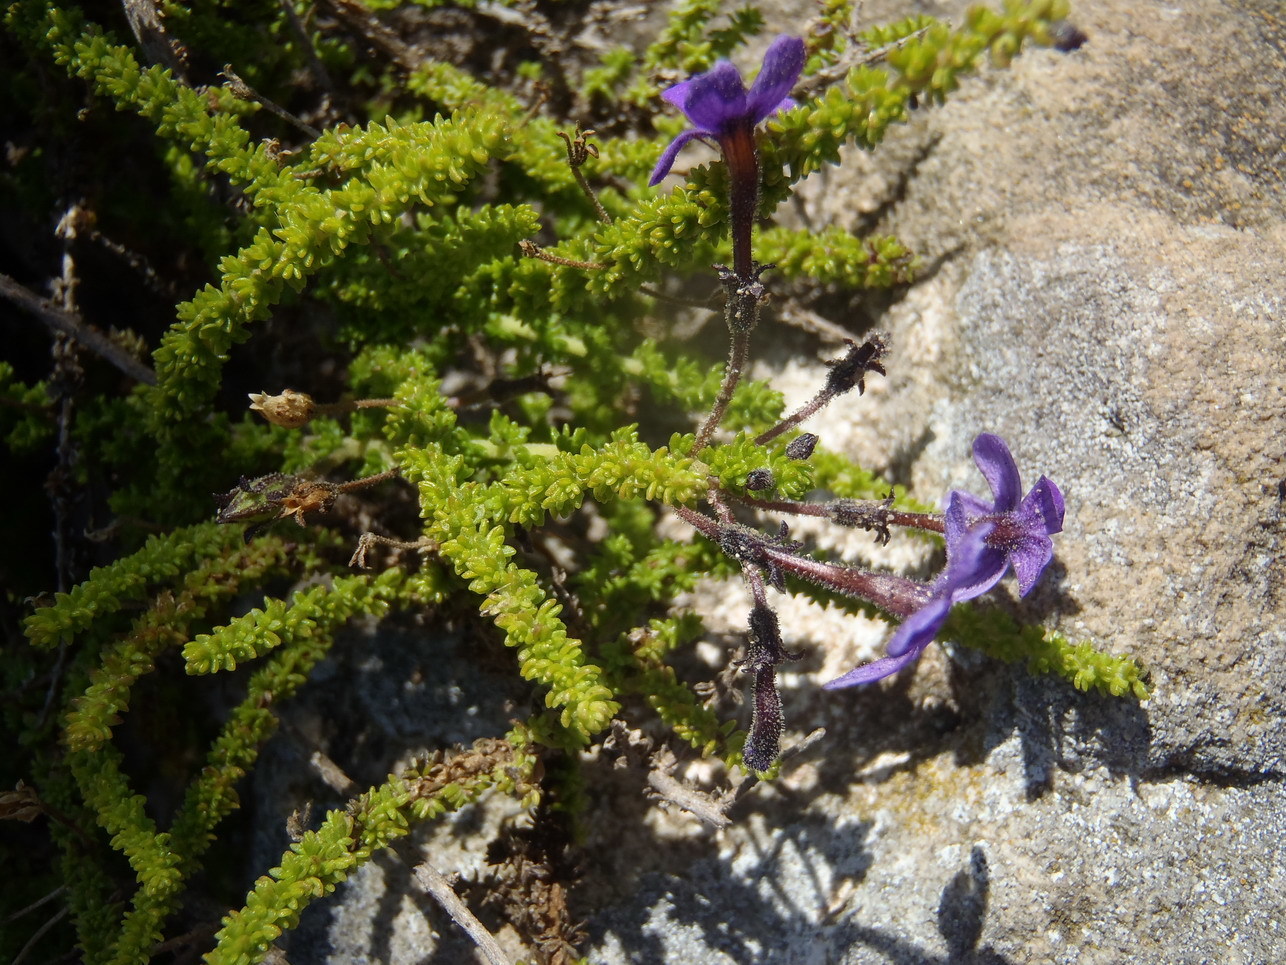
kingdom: Plantae
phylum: Tracheophyta
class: Magnoliopsida
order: Lamiales
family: Scrophulariaceae
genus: Jamesbrittenia
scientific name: Jamesbrittenia microphylla
